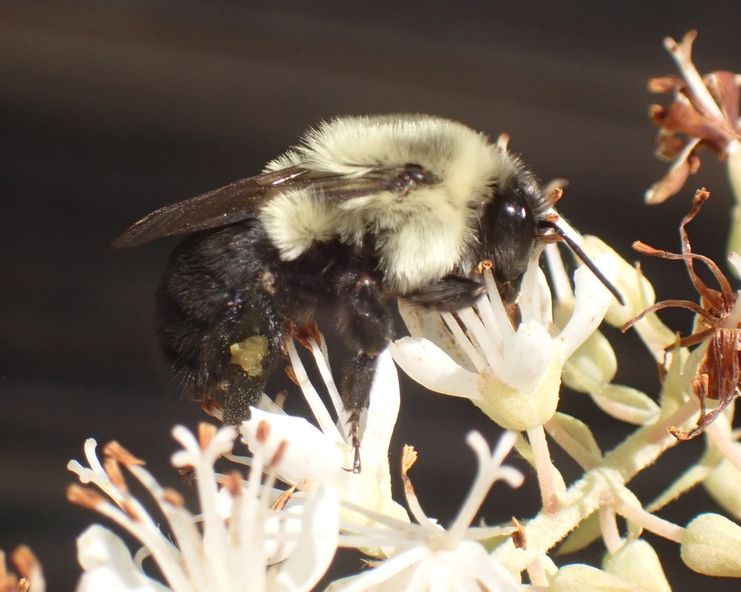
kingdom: Animalia
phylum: Arthropoda
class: Insecta
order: Hymenoptera
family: Apidae
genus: Bombus
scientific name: Bombus impatiens
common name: Common eastern bumble bee
